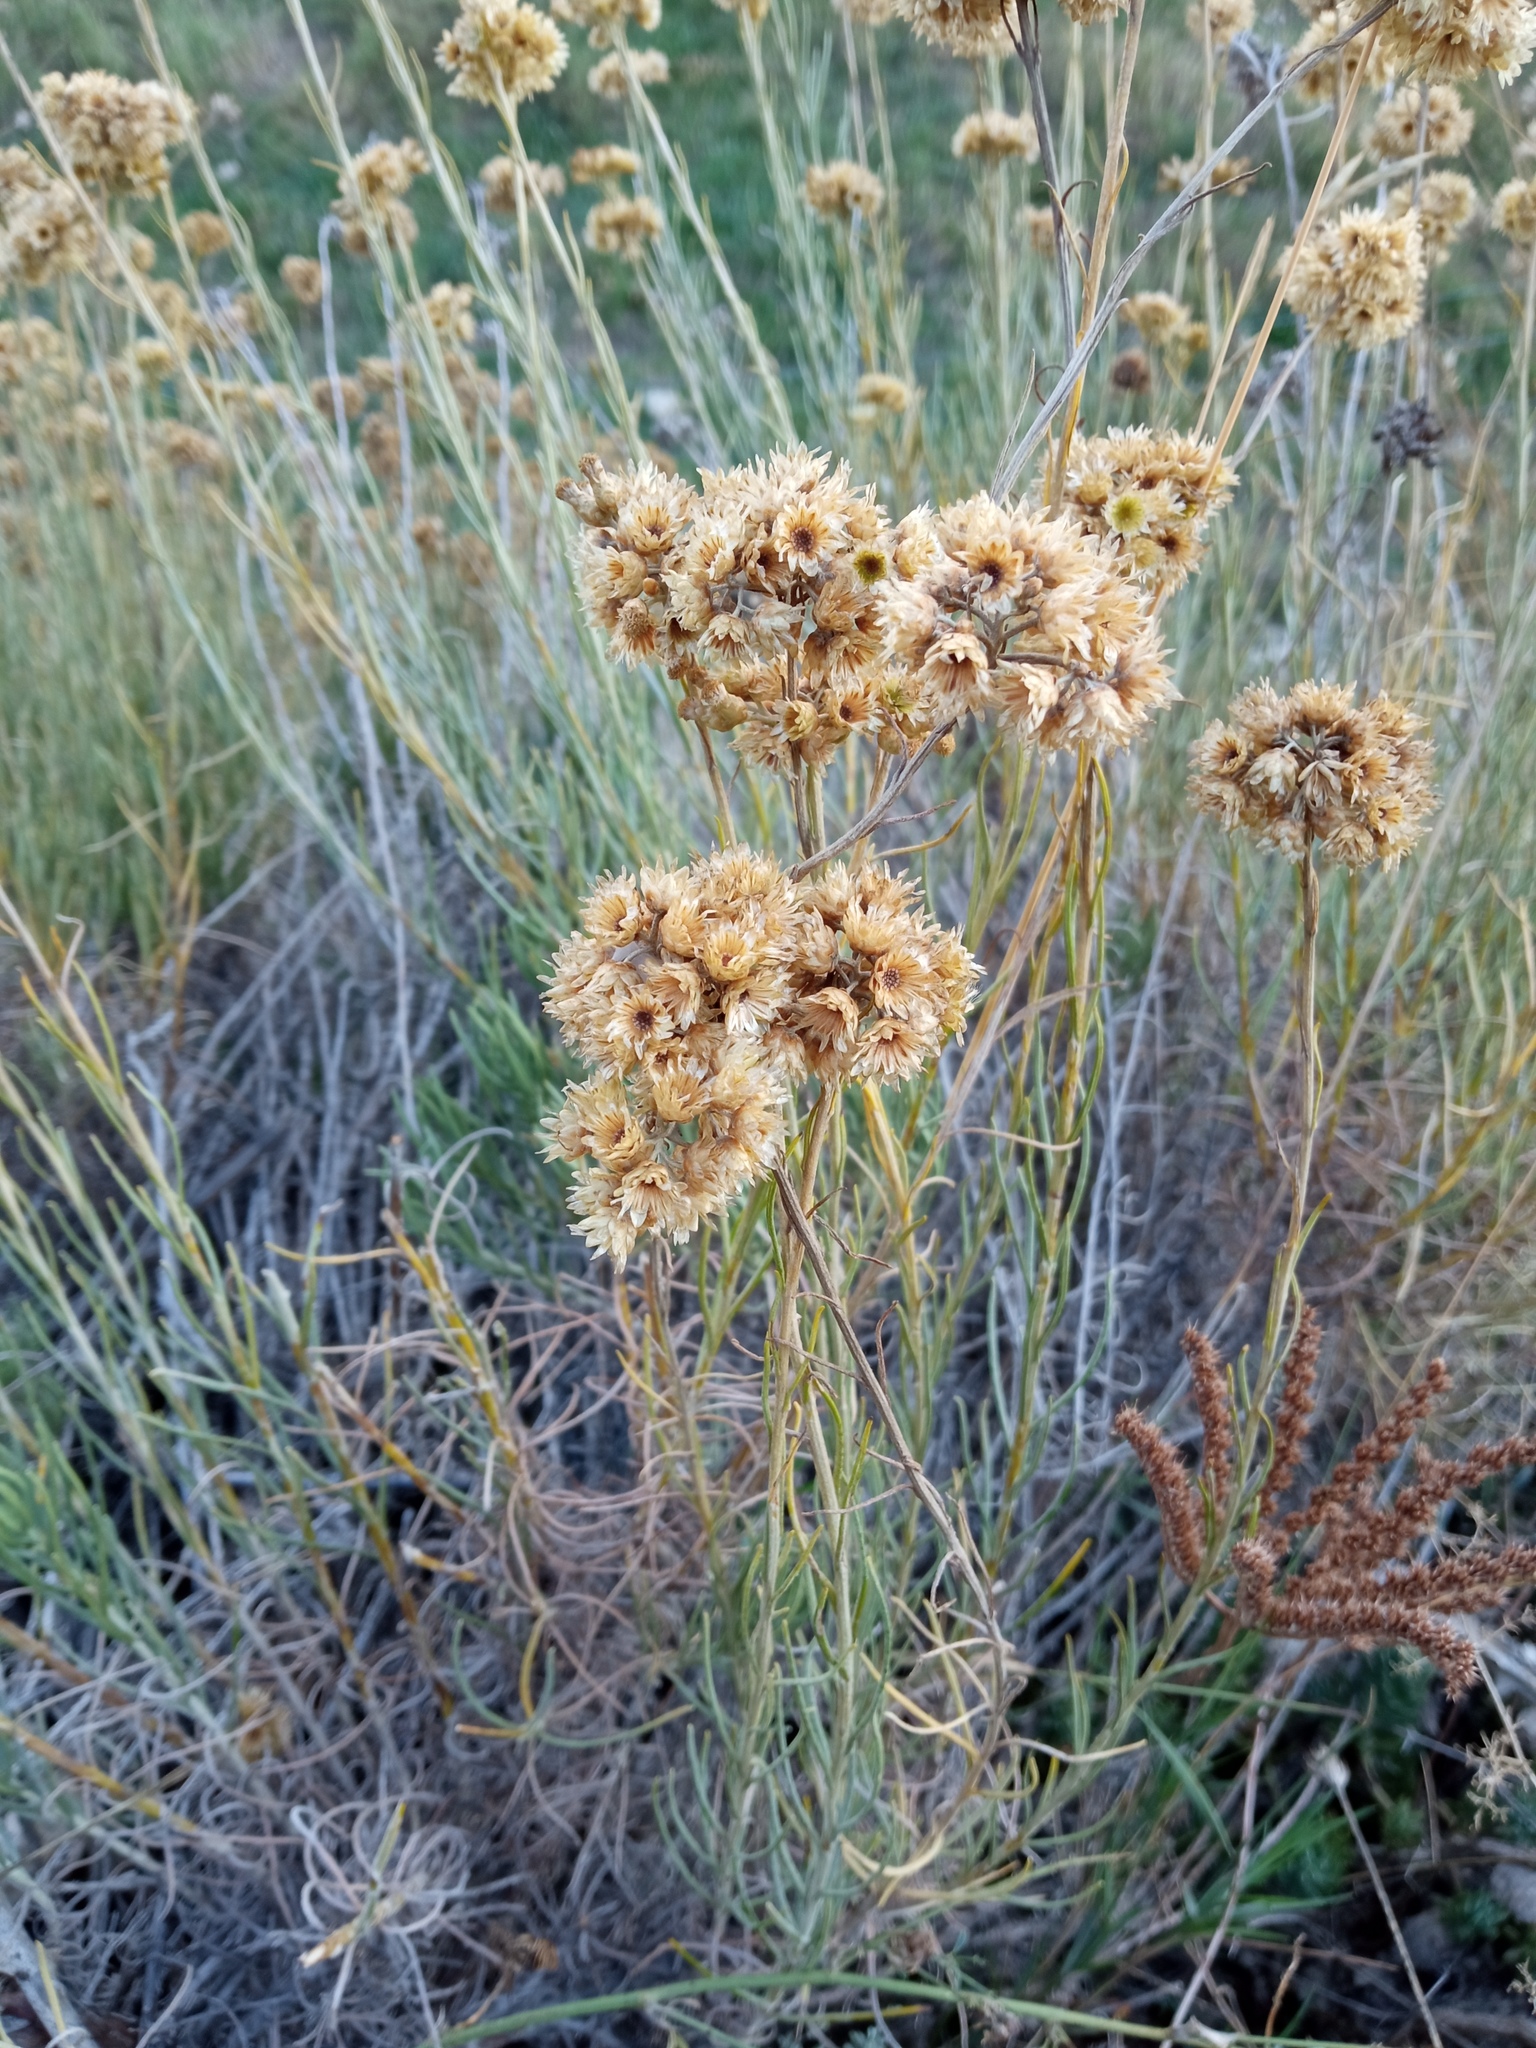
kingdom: Plantae
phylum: Tracheophyta
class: Magnoliopsida
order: Asterales
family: Asteraceae
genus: Helichrysum
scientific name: Helichrysum stoechas
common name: Goldilocks
